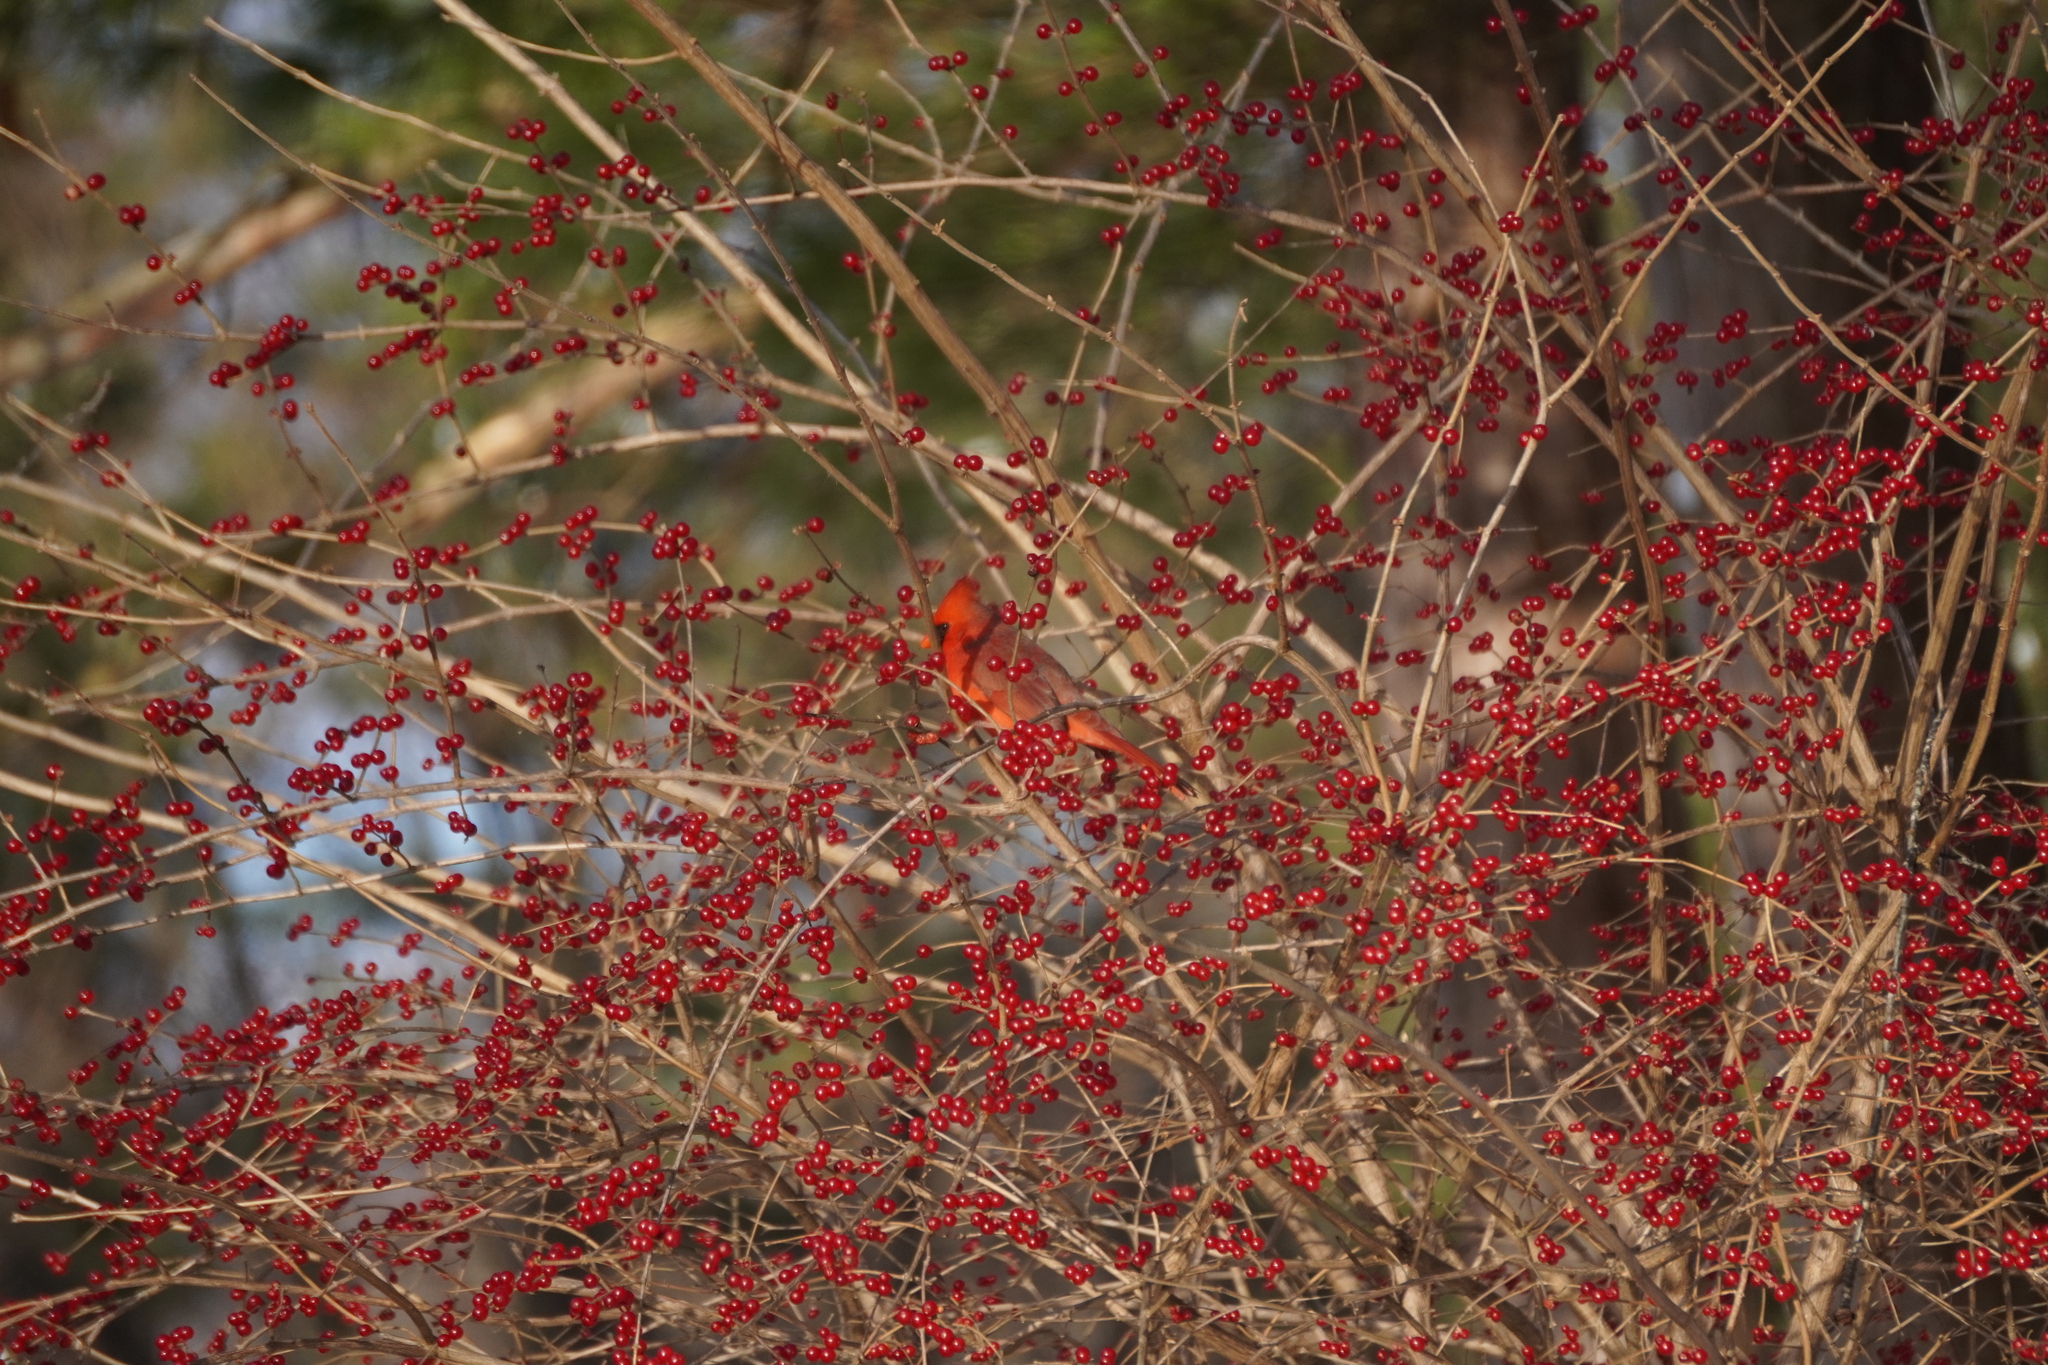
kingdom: Animalia
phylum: Chordata
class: Aves
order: Passeriformes
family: Cardinalidae
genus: Cardinalis
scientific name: Cardinalis cardinalis
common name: Northern cardinal
